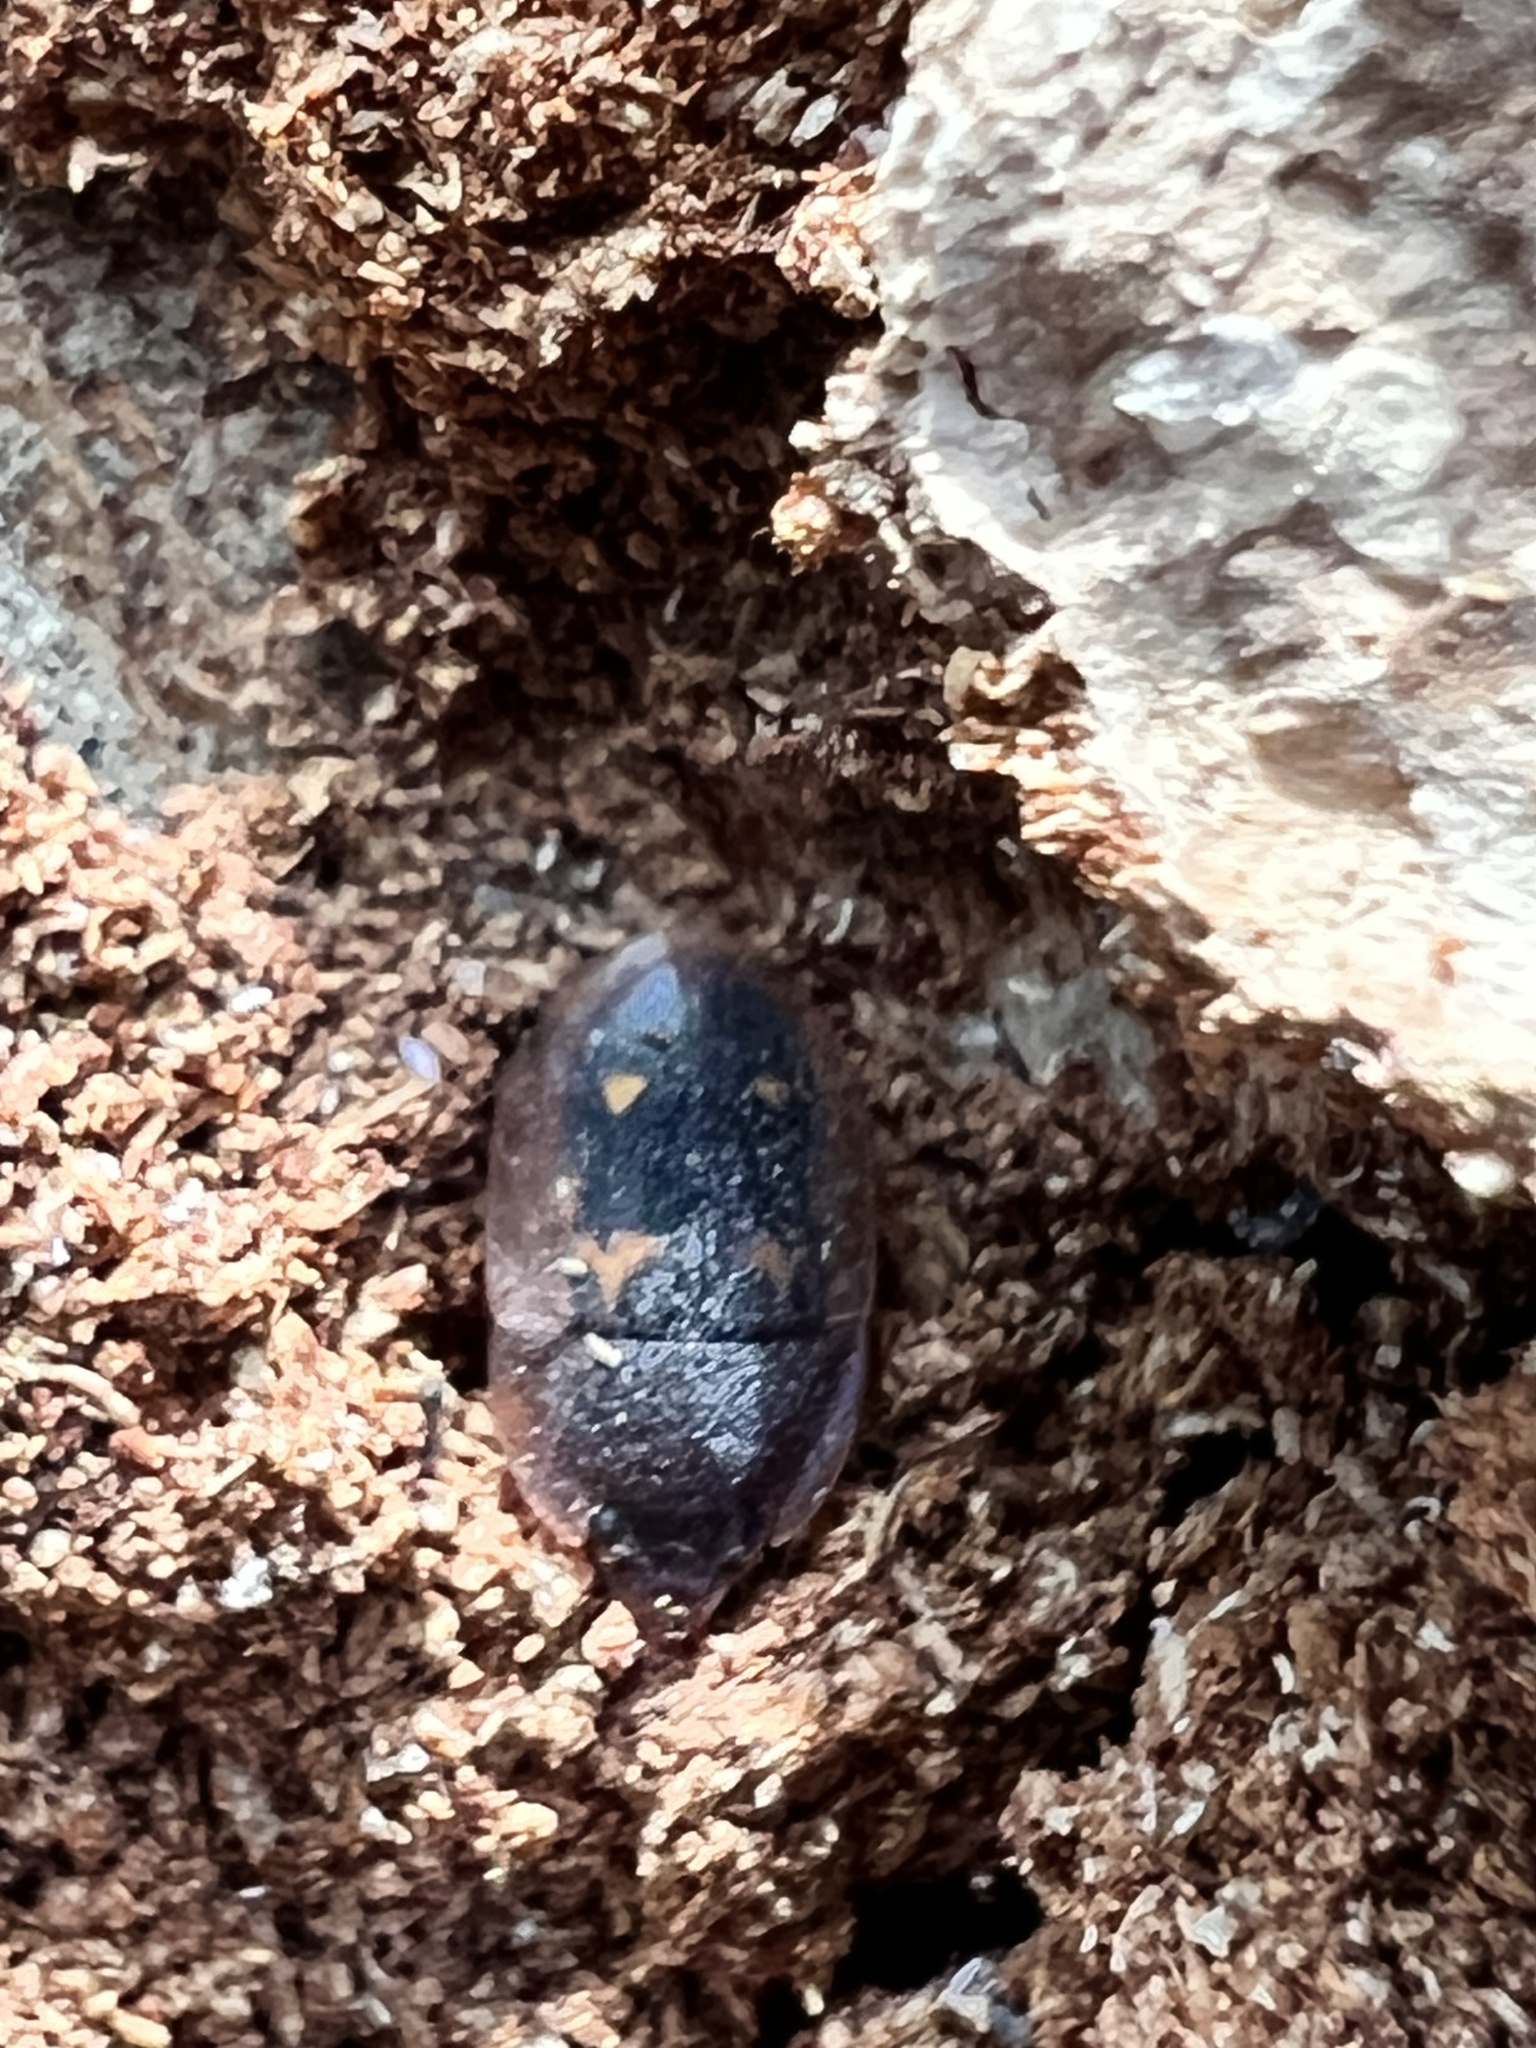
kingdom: Animalia
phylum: Arthropoda
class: Insecta
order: Coleoptera
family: Nitidulidae
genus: Prometopia
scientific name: Prometopia sexmaculata
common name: Six-spotted sap-feeding beetle
